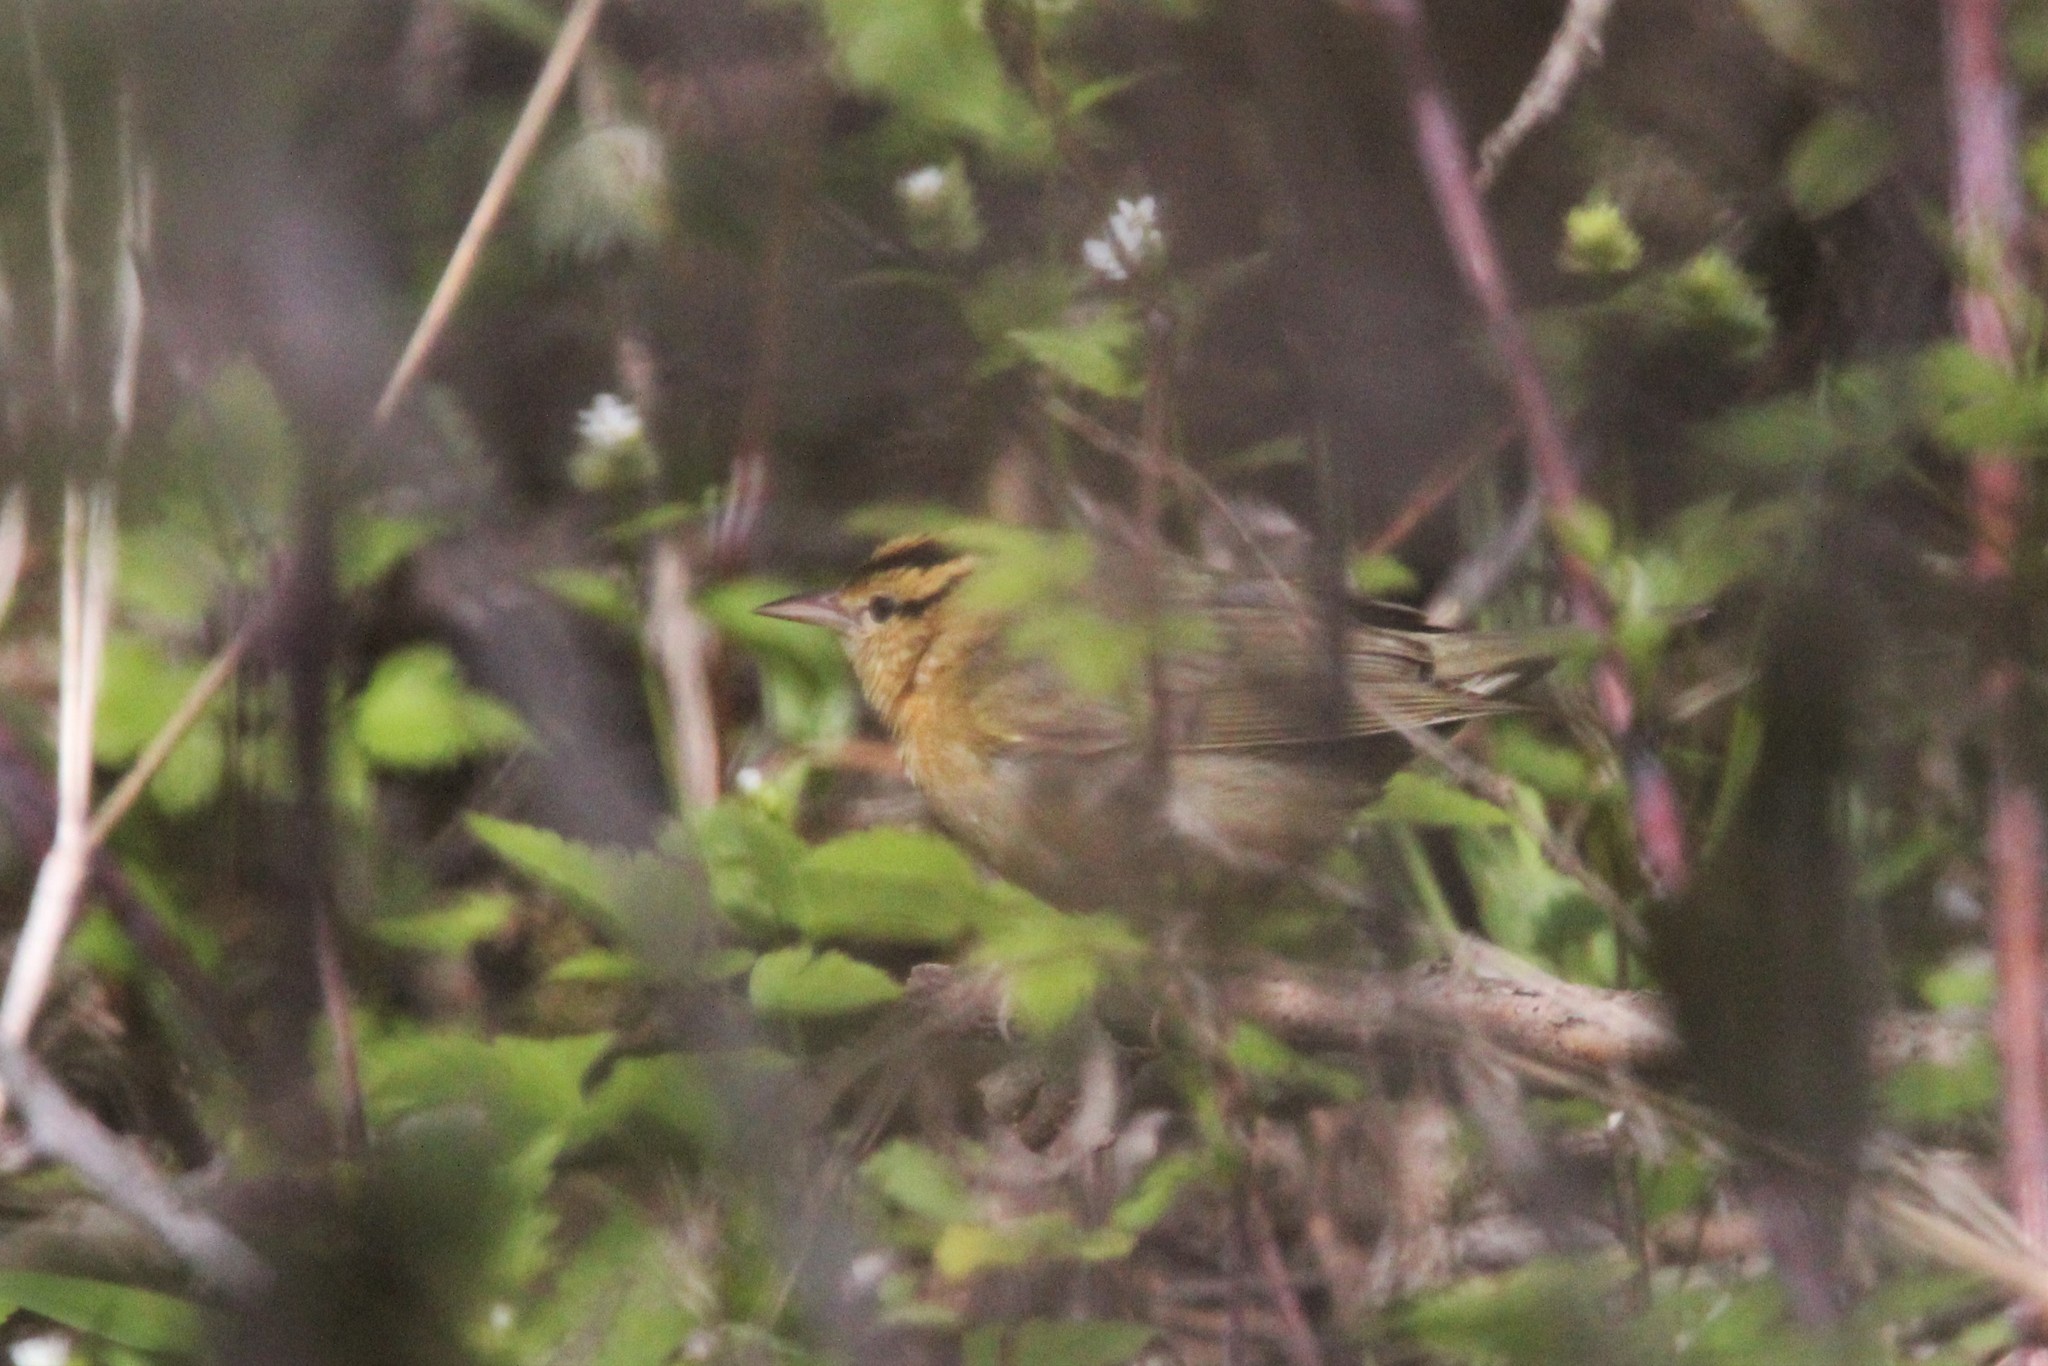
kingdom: Animalia
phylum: Chordata
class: Aves
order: Passeriformes
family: Parulidae
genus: Helmitheros
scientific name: Helmitheros vermivorum
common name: Worm-eating warbler
